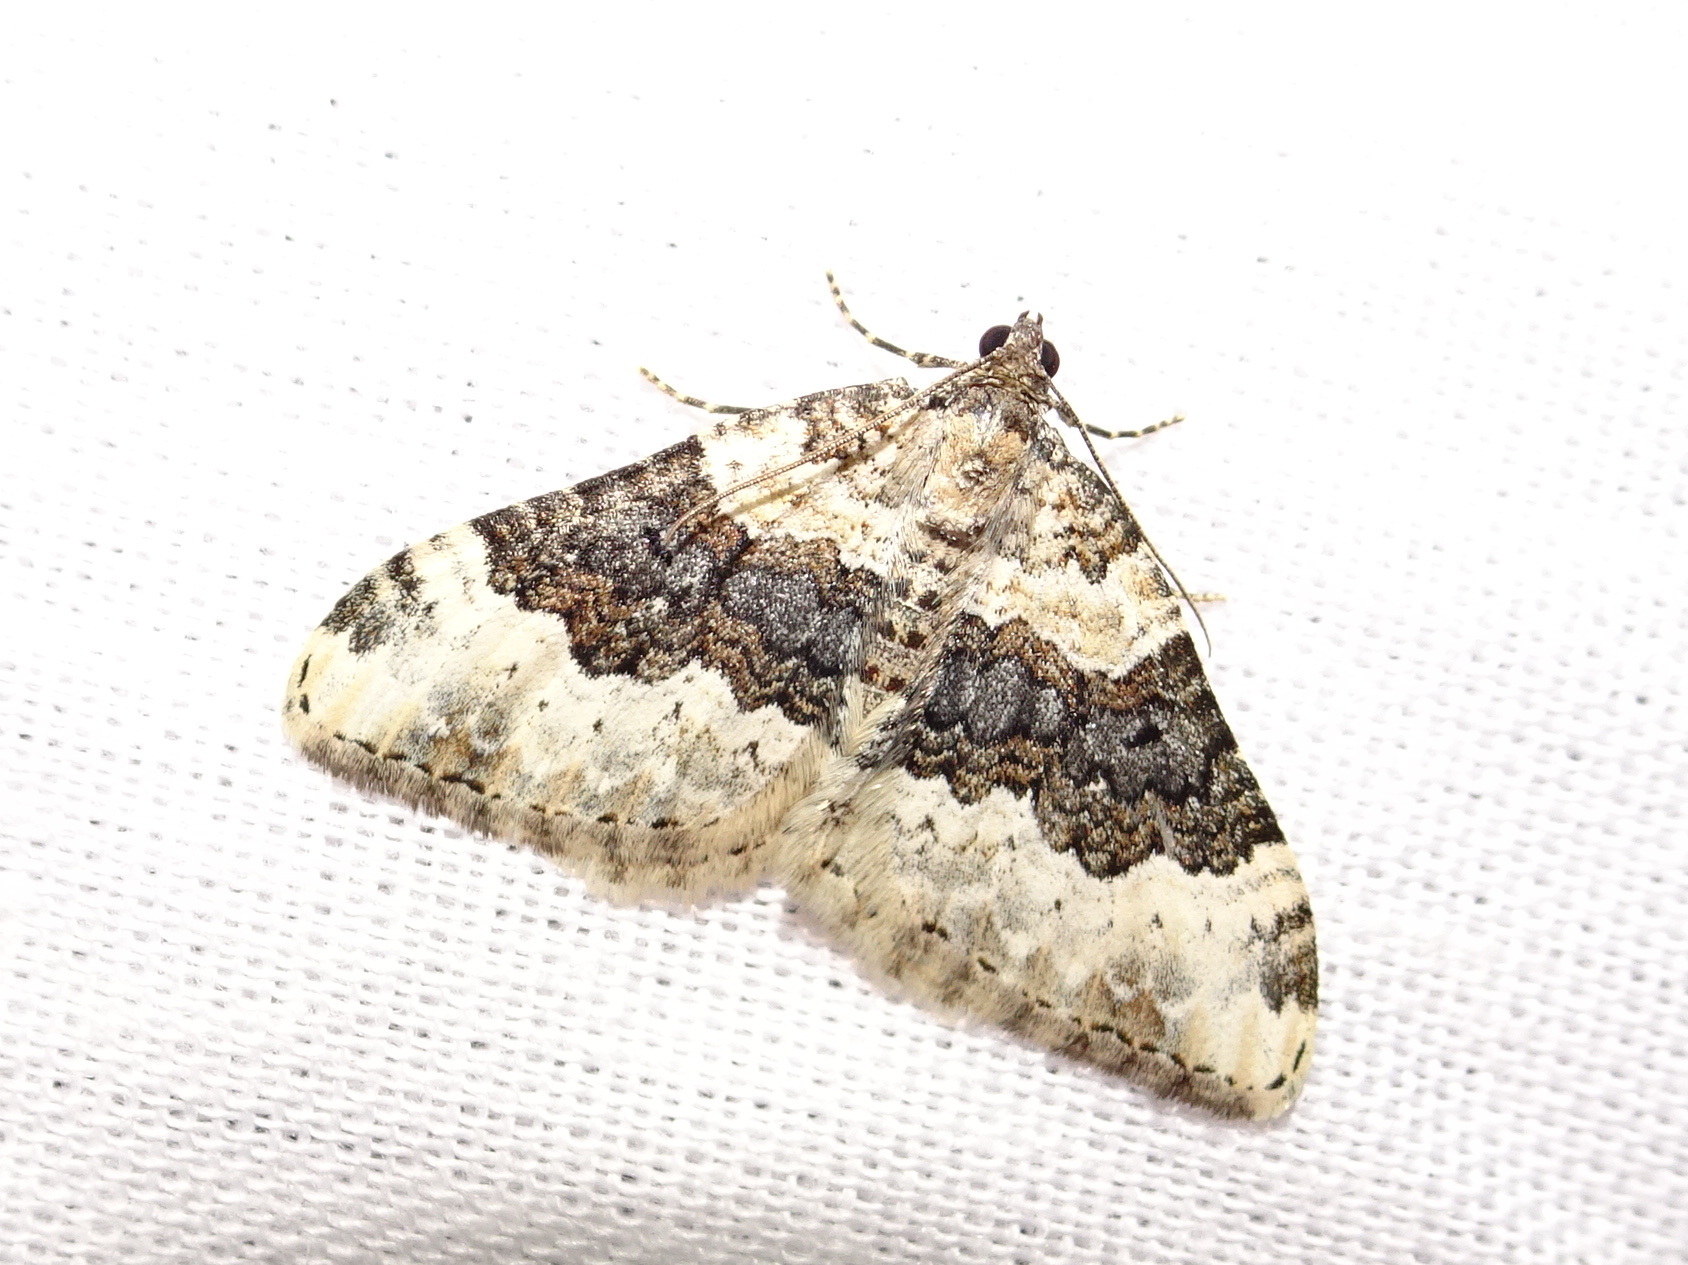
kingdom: Animalia
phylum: Arthropoda
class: Insecta
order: Lepidoptera
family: Geometridae
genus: Epirrhoe
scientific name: Epirrhoe galiata
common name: Galium carpet
